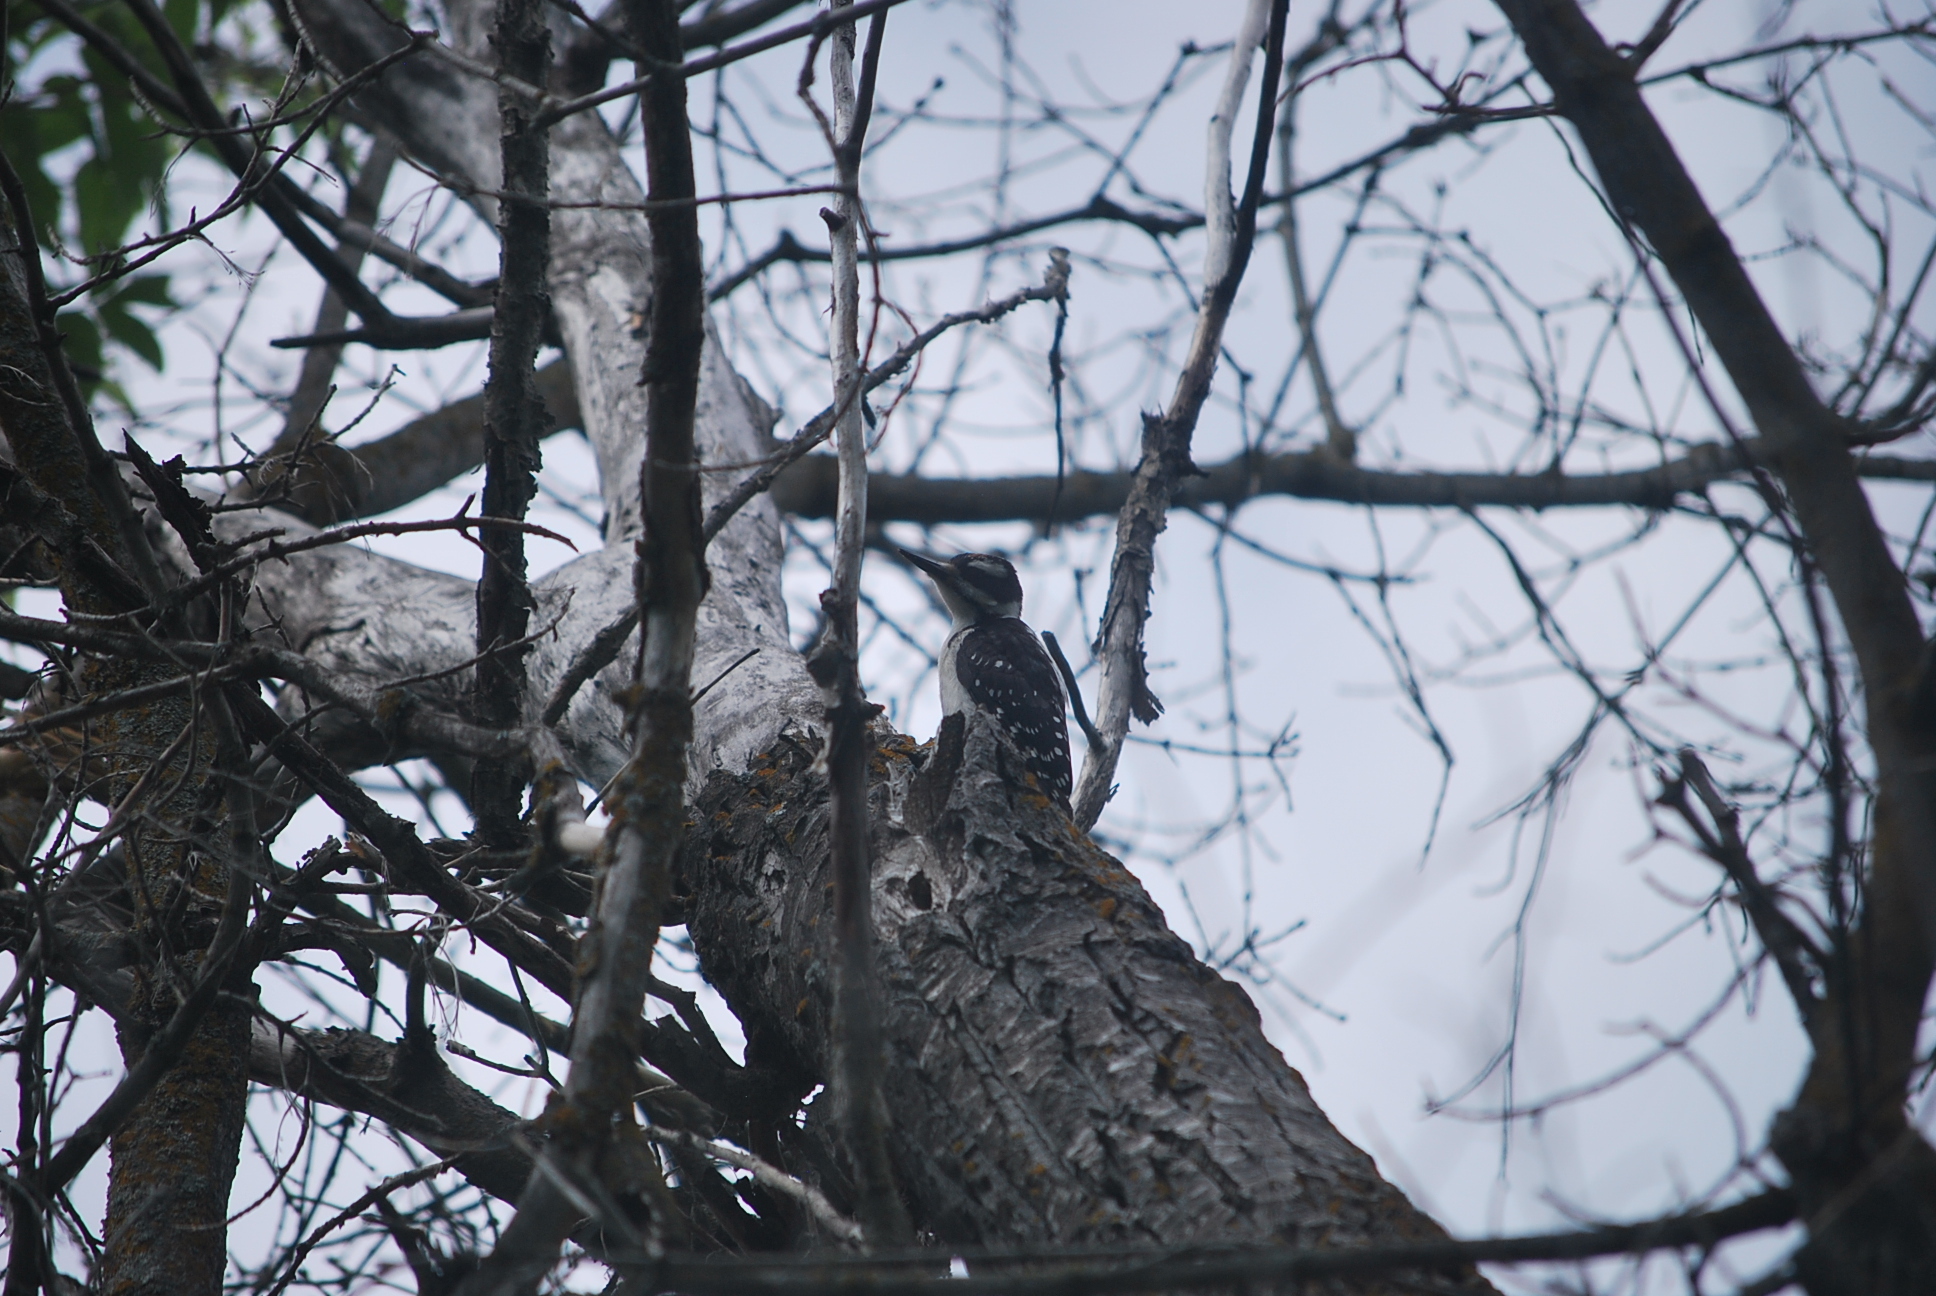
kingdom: Animalia
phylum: Chordata
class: Aves
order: Piciformes
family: Picidae
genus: Leuconotopicus
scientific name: Leuconotopicus villosus
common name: Hairy woodpecker
